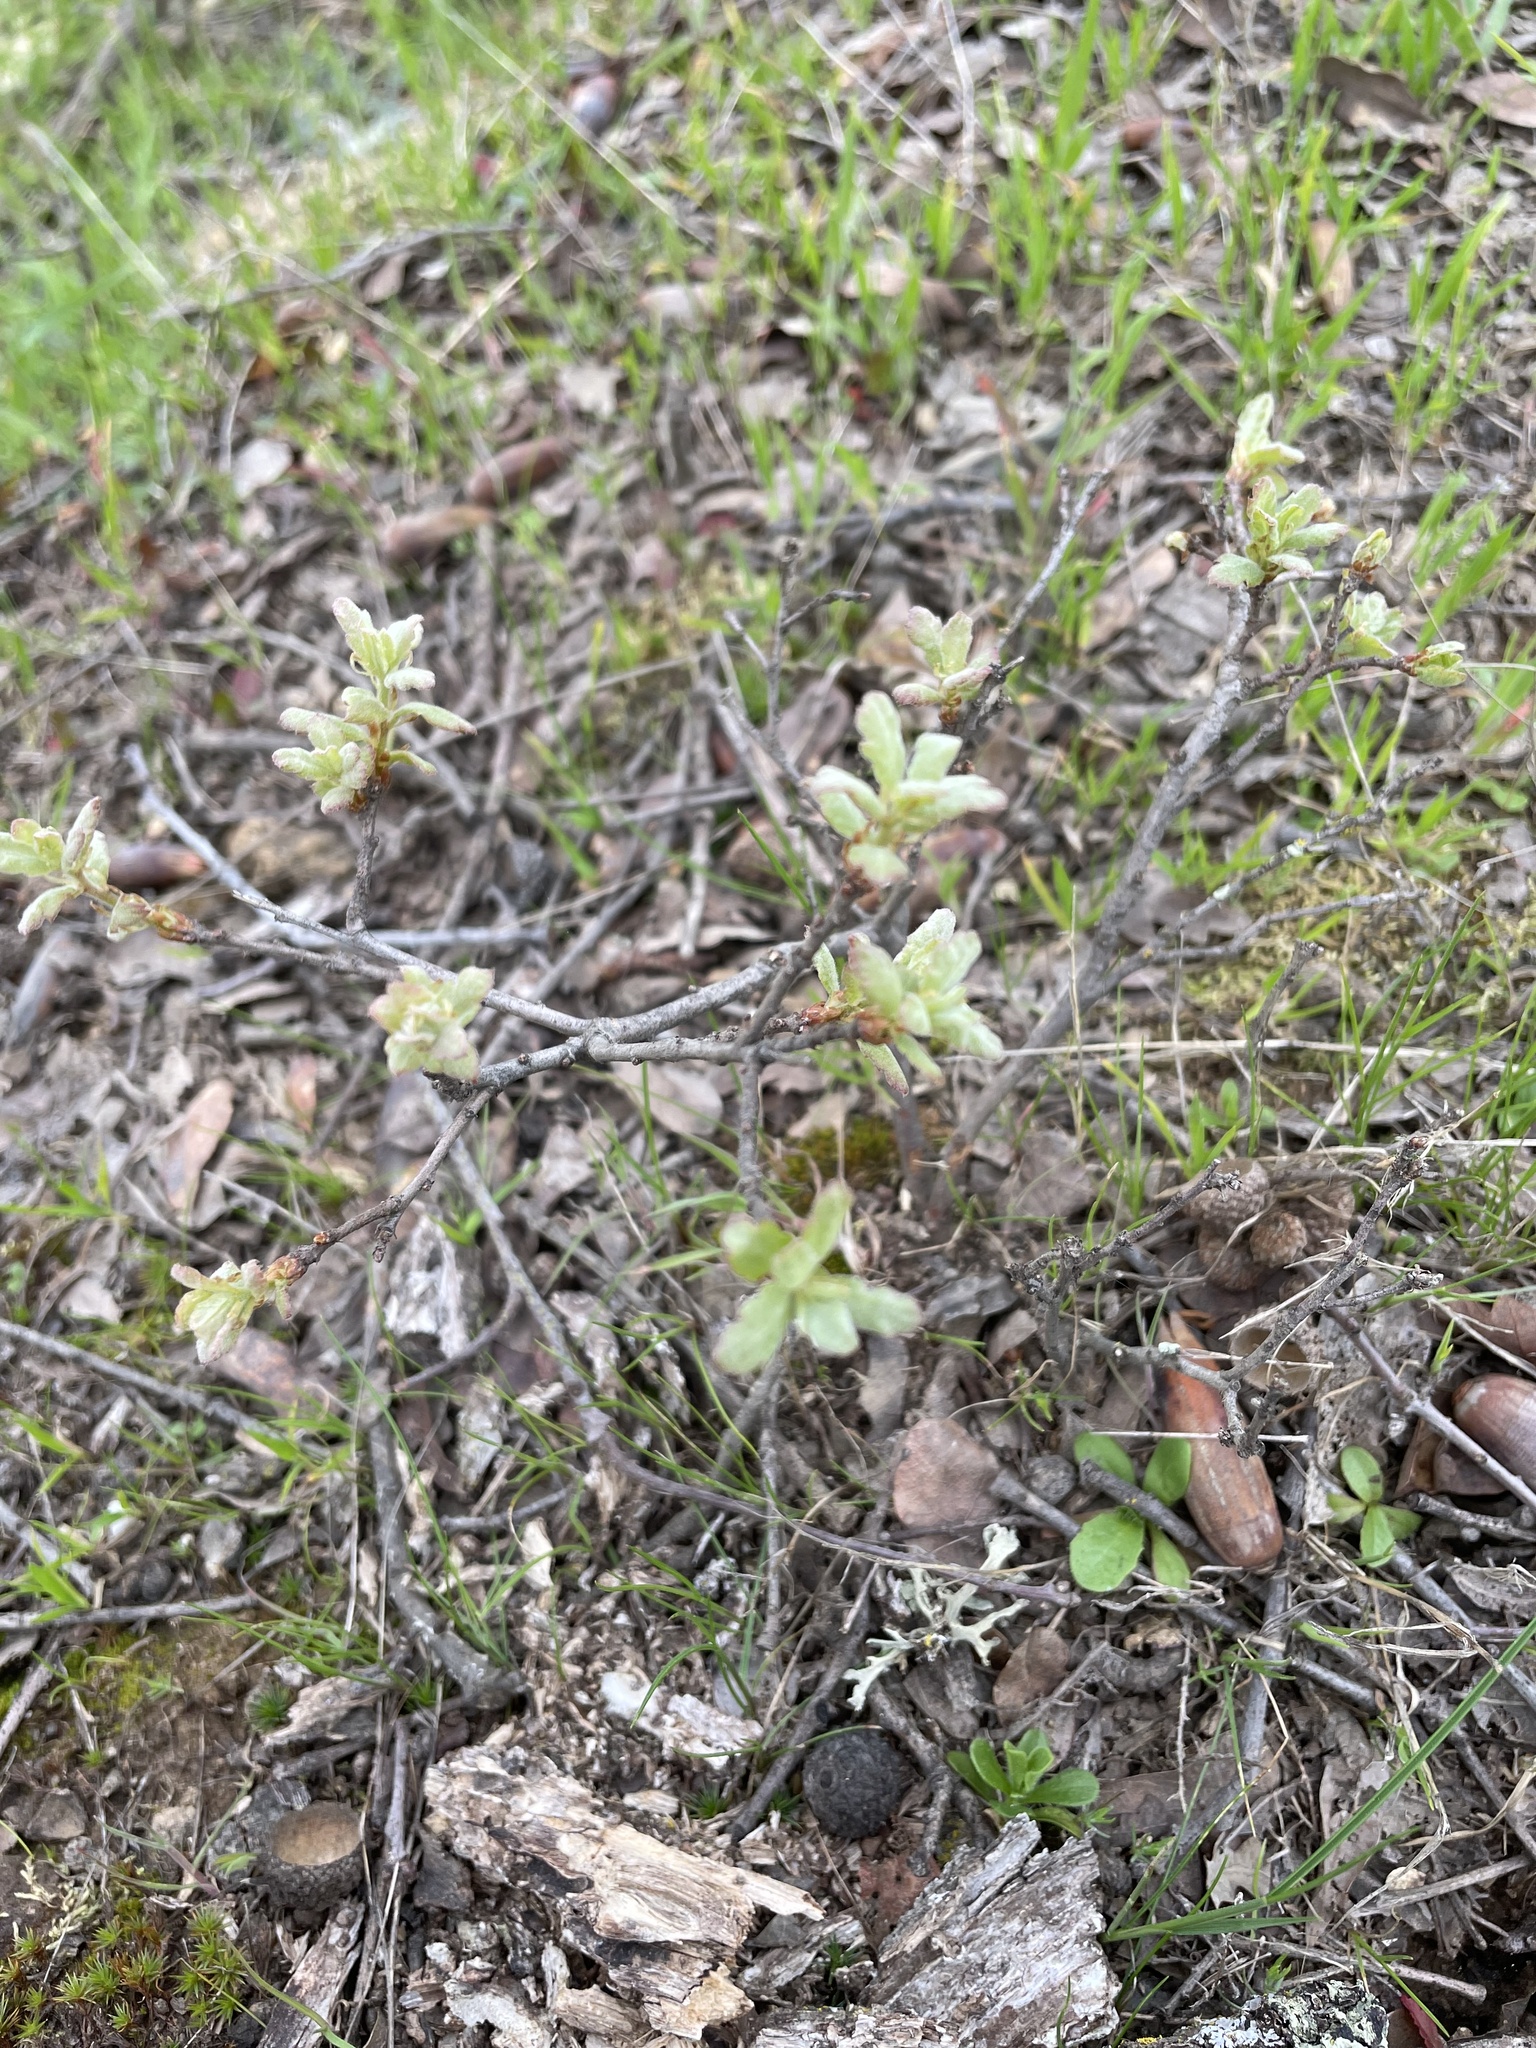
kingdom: Plantae
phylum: Tracheophyta
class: Magnoliopsida
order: Fagales
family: Fagaceae
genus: Quercus
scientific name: Quercus douglasii
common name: Blue oak
